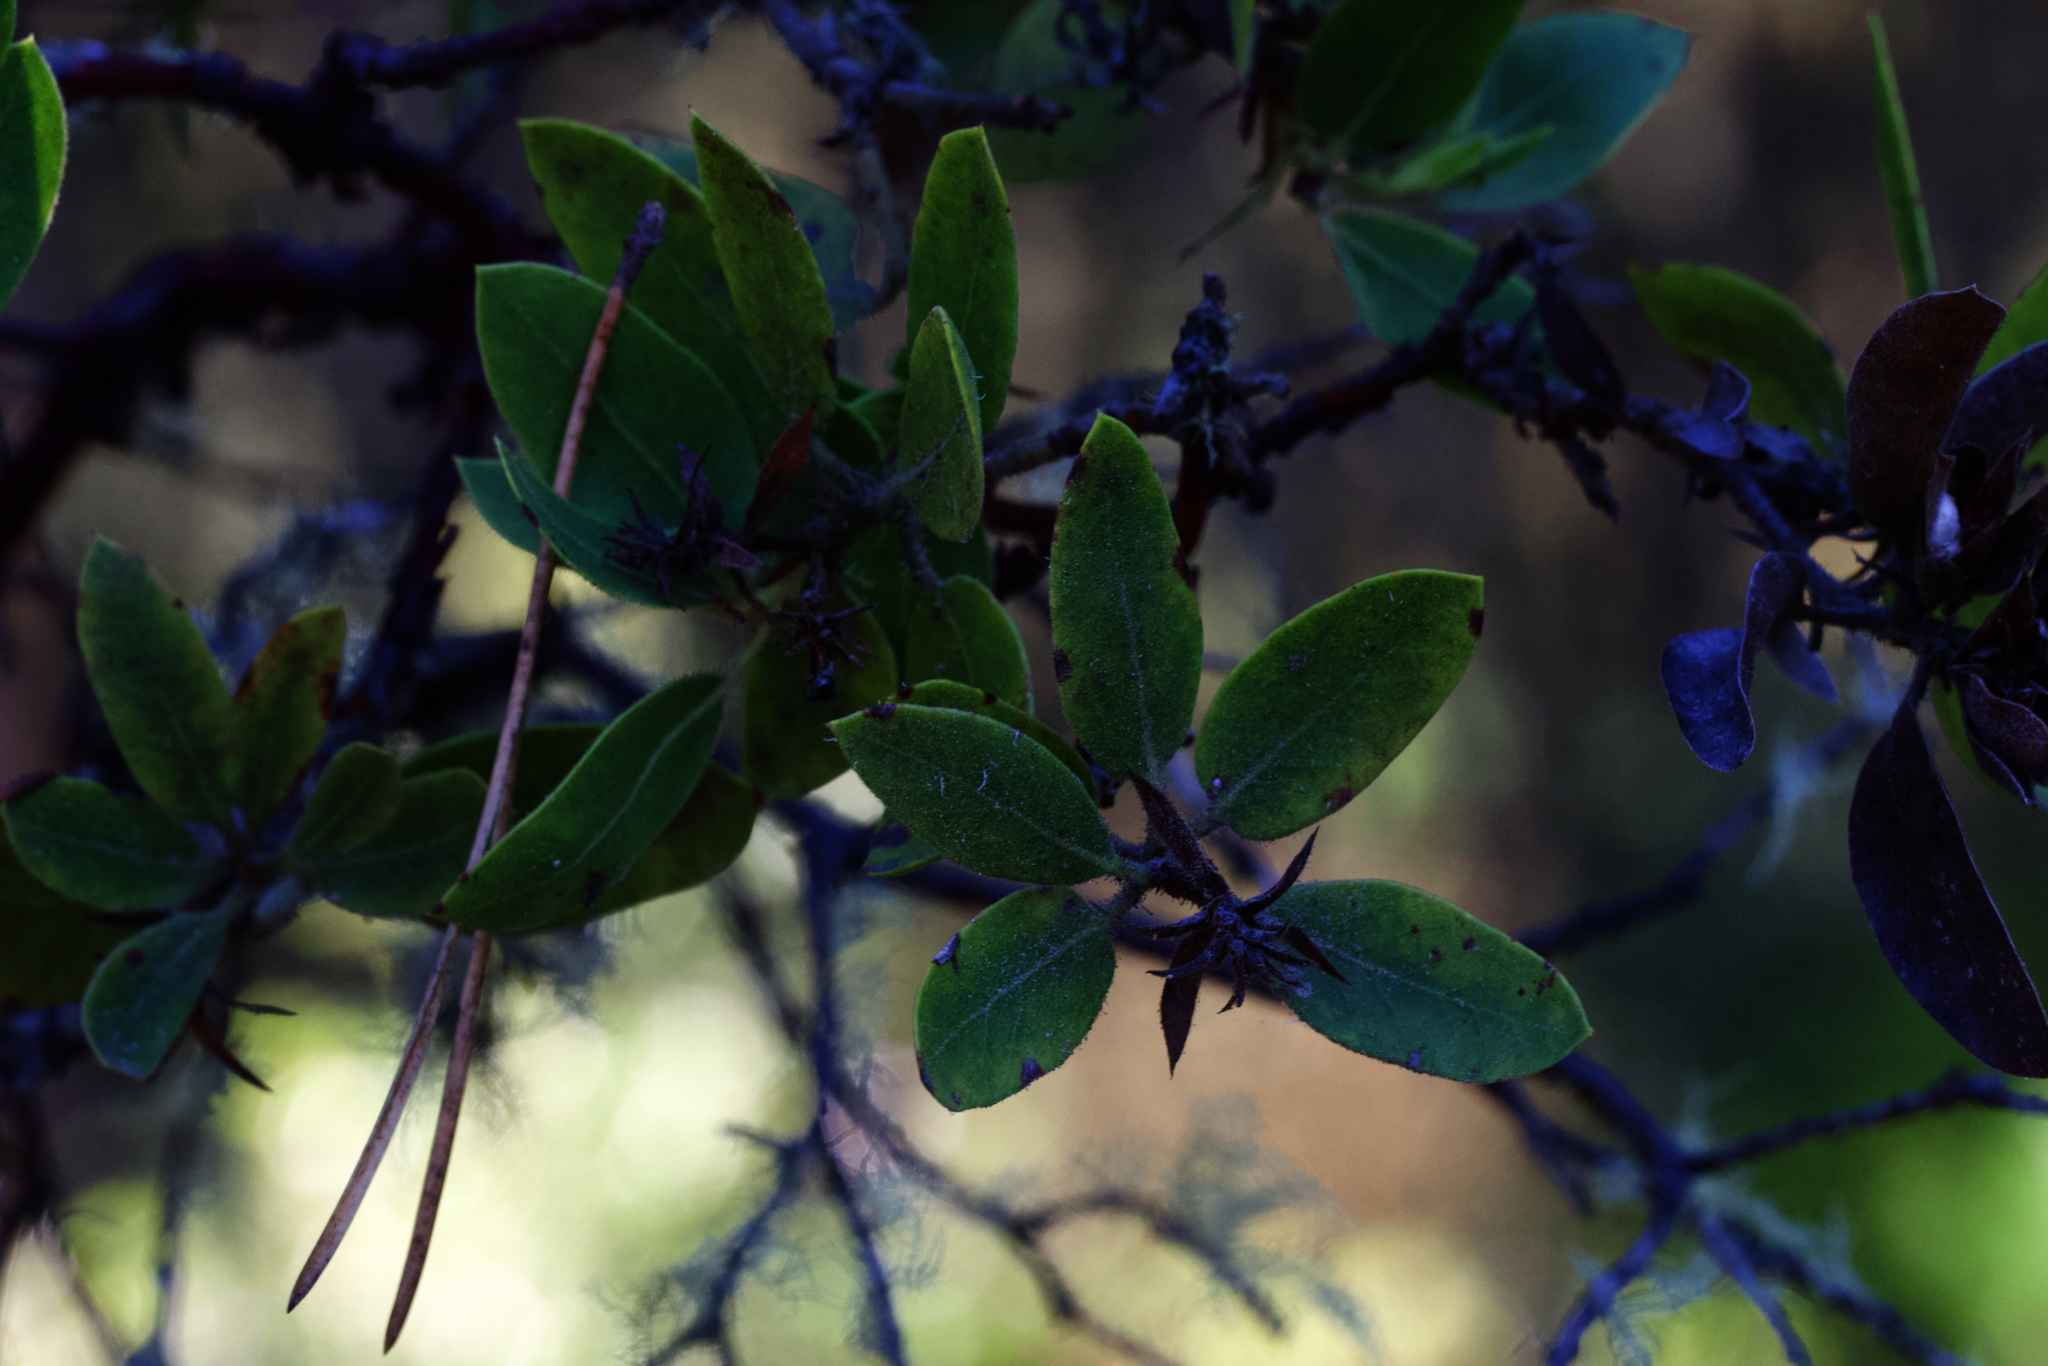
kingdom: Plantae
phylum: Tracheophyta
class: Magnoliopsida
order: Ericales
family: Ericaceae
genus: Arctostaphylos
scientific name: Arctostaphylos virgata
